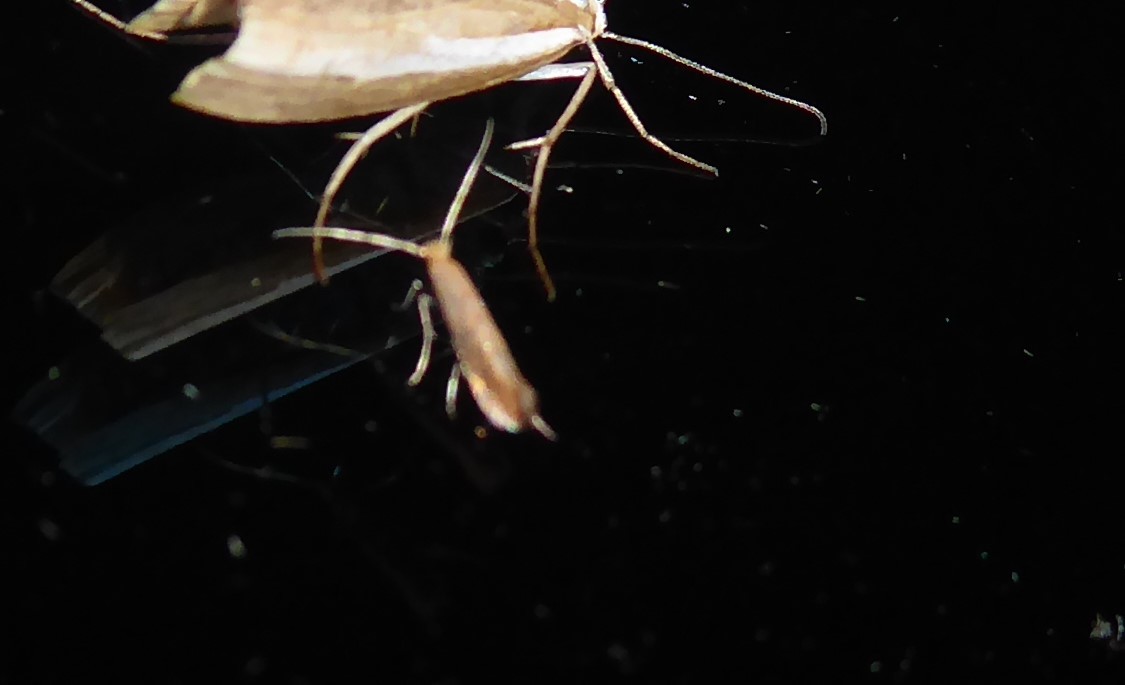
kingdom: Animalia
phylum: Arthropoda
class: Insecta
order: Lepidoptera
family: Gracillariidae
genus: Phyllonorycter
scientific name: Phyllonorycter messaniella
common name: Garden midget
